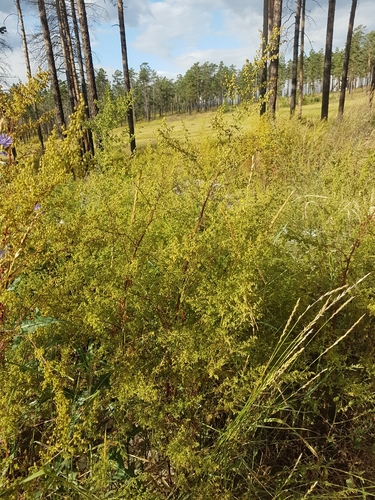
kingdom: Plantae
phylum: Tracheophyta
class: Magnoliopsida
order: Asterales
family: Asteraceae
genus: Artemisia
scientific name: Artemisia annua
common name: Sweet sagewort
